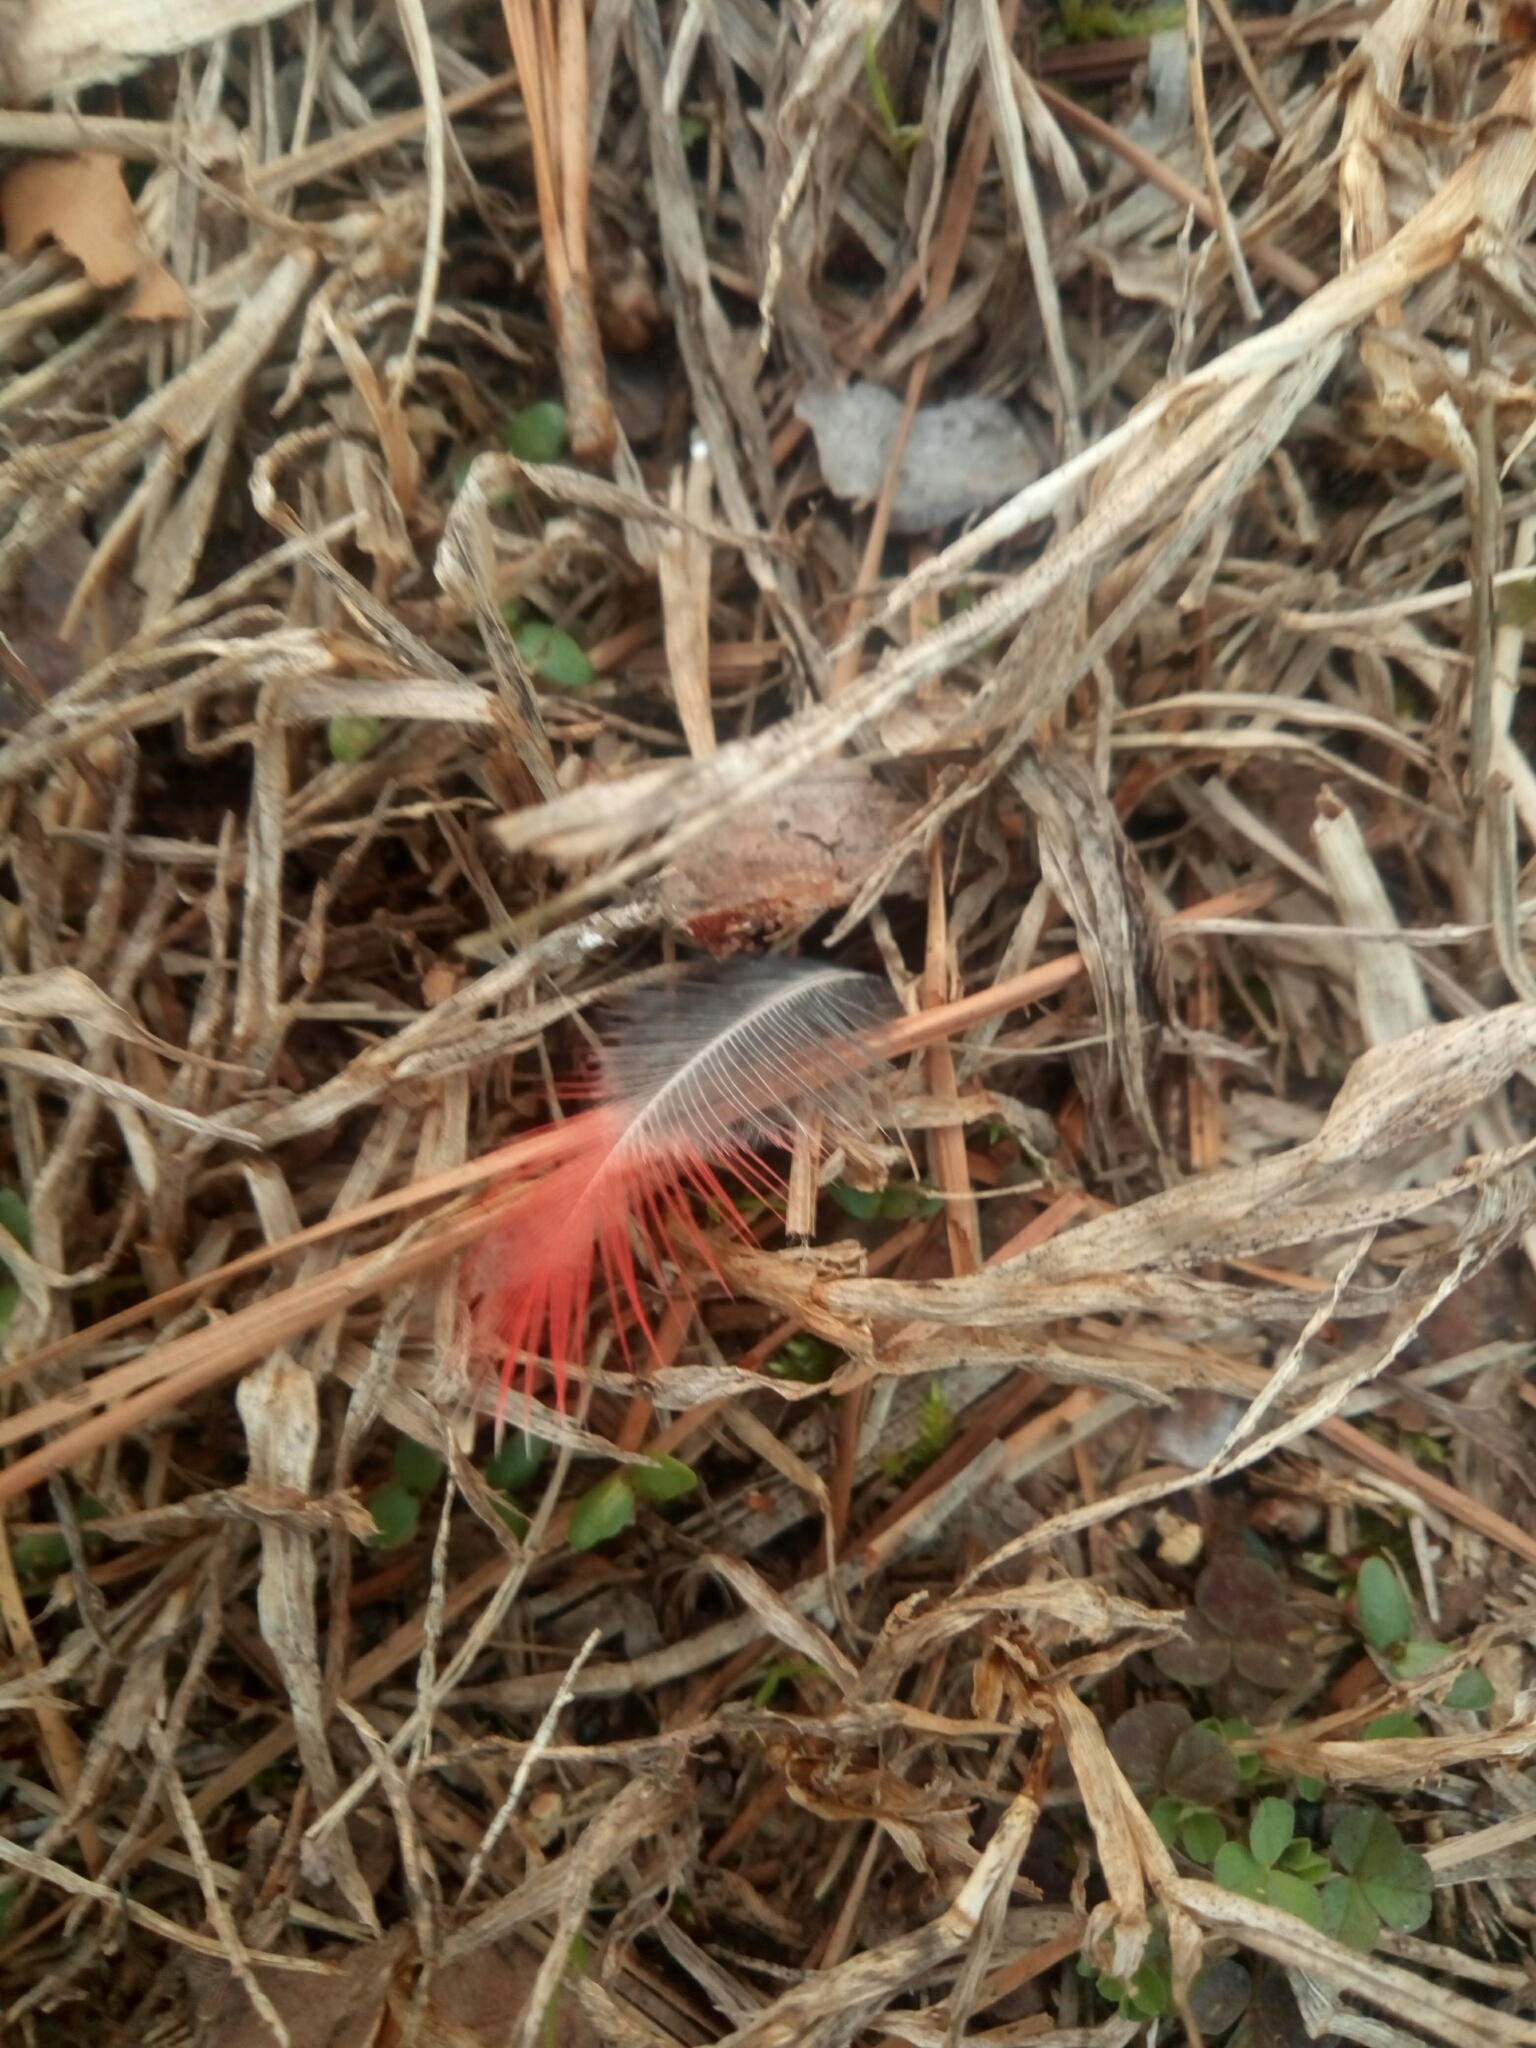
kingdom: Animalia
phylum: Chordata
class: Aves
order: Passeriformes
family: Cardinalidae
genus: Cardinalis
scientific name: Cardinalis cardinalis
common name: Northern cardinal
